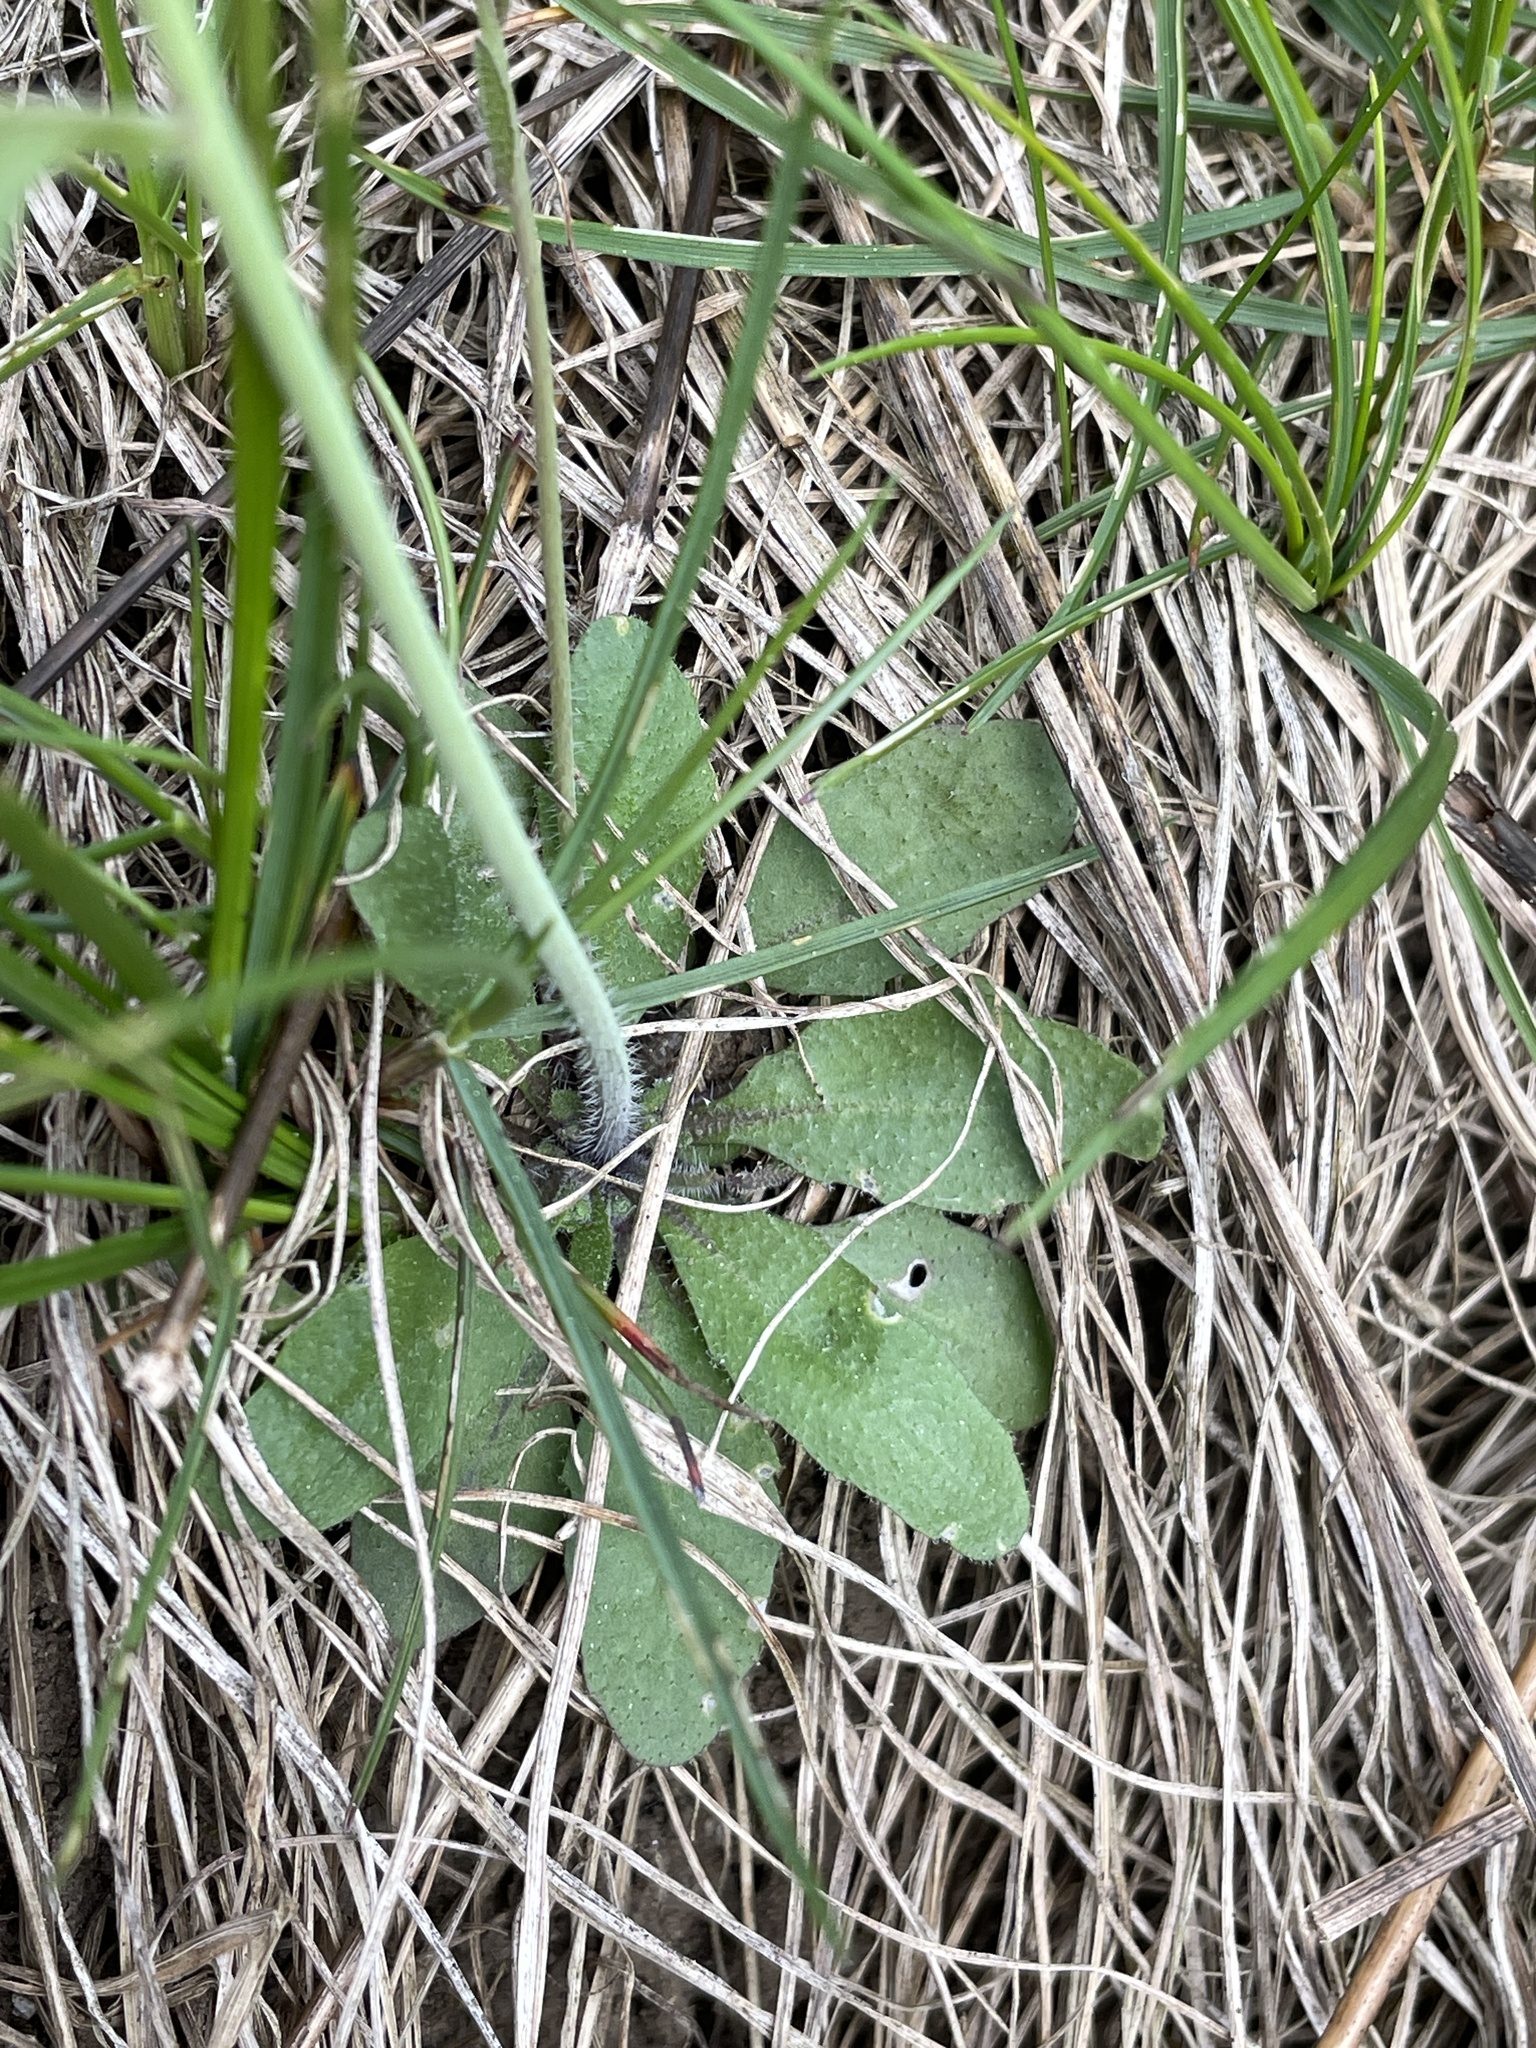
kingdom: Plantae
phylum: Tracheophyta
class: Magnoliopsida
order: Brassicales
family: Brassicaceae
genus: Arabidopsis
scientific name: Arabidopsis thaliana
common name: Thale cress
